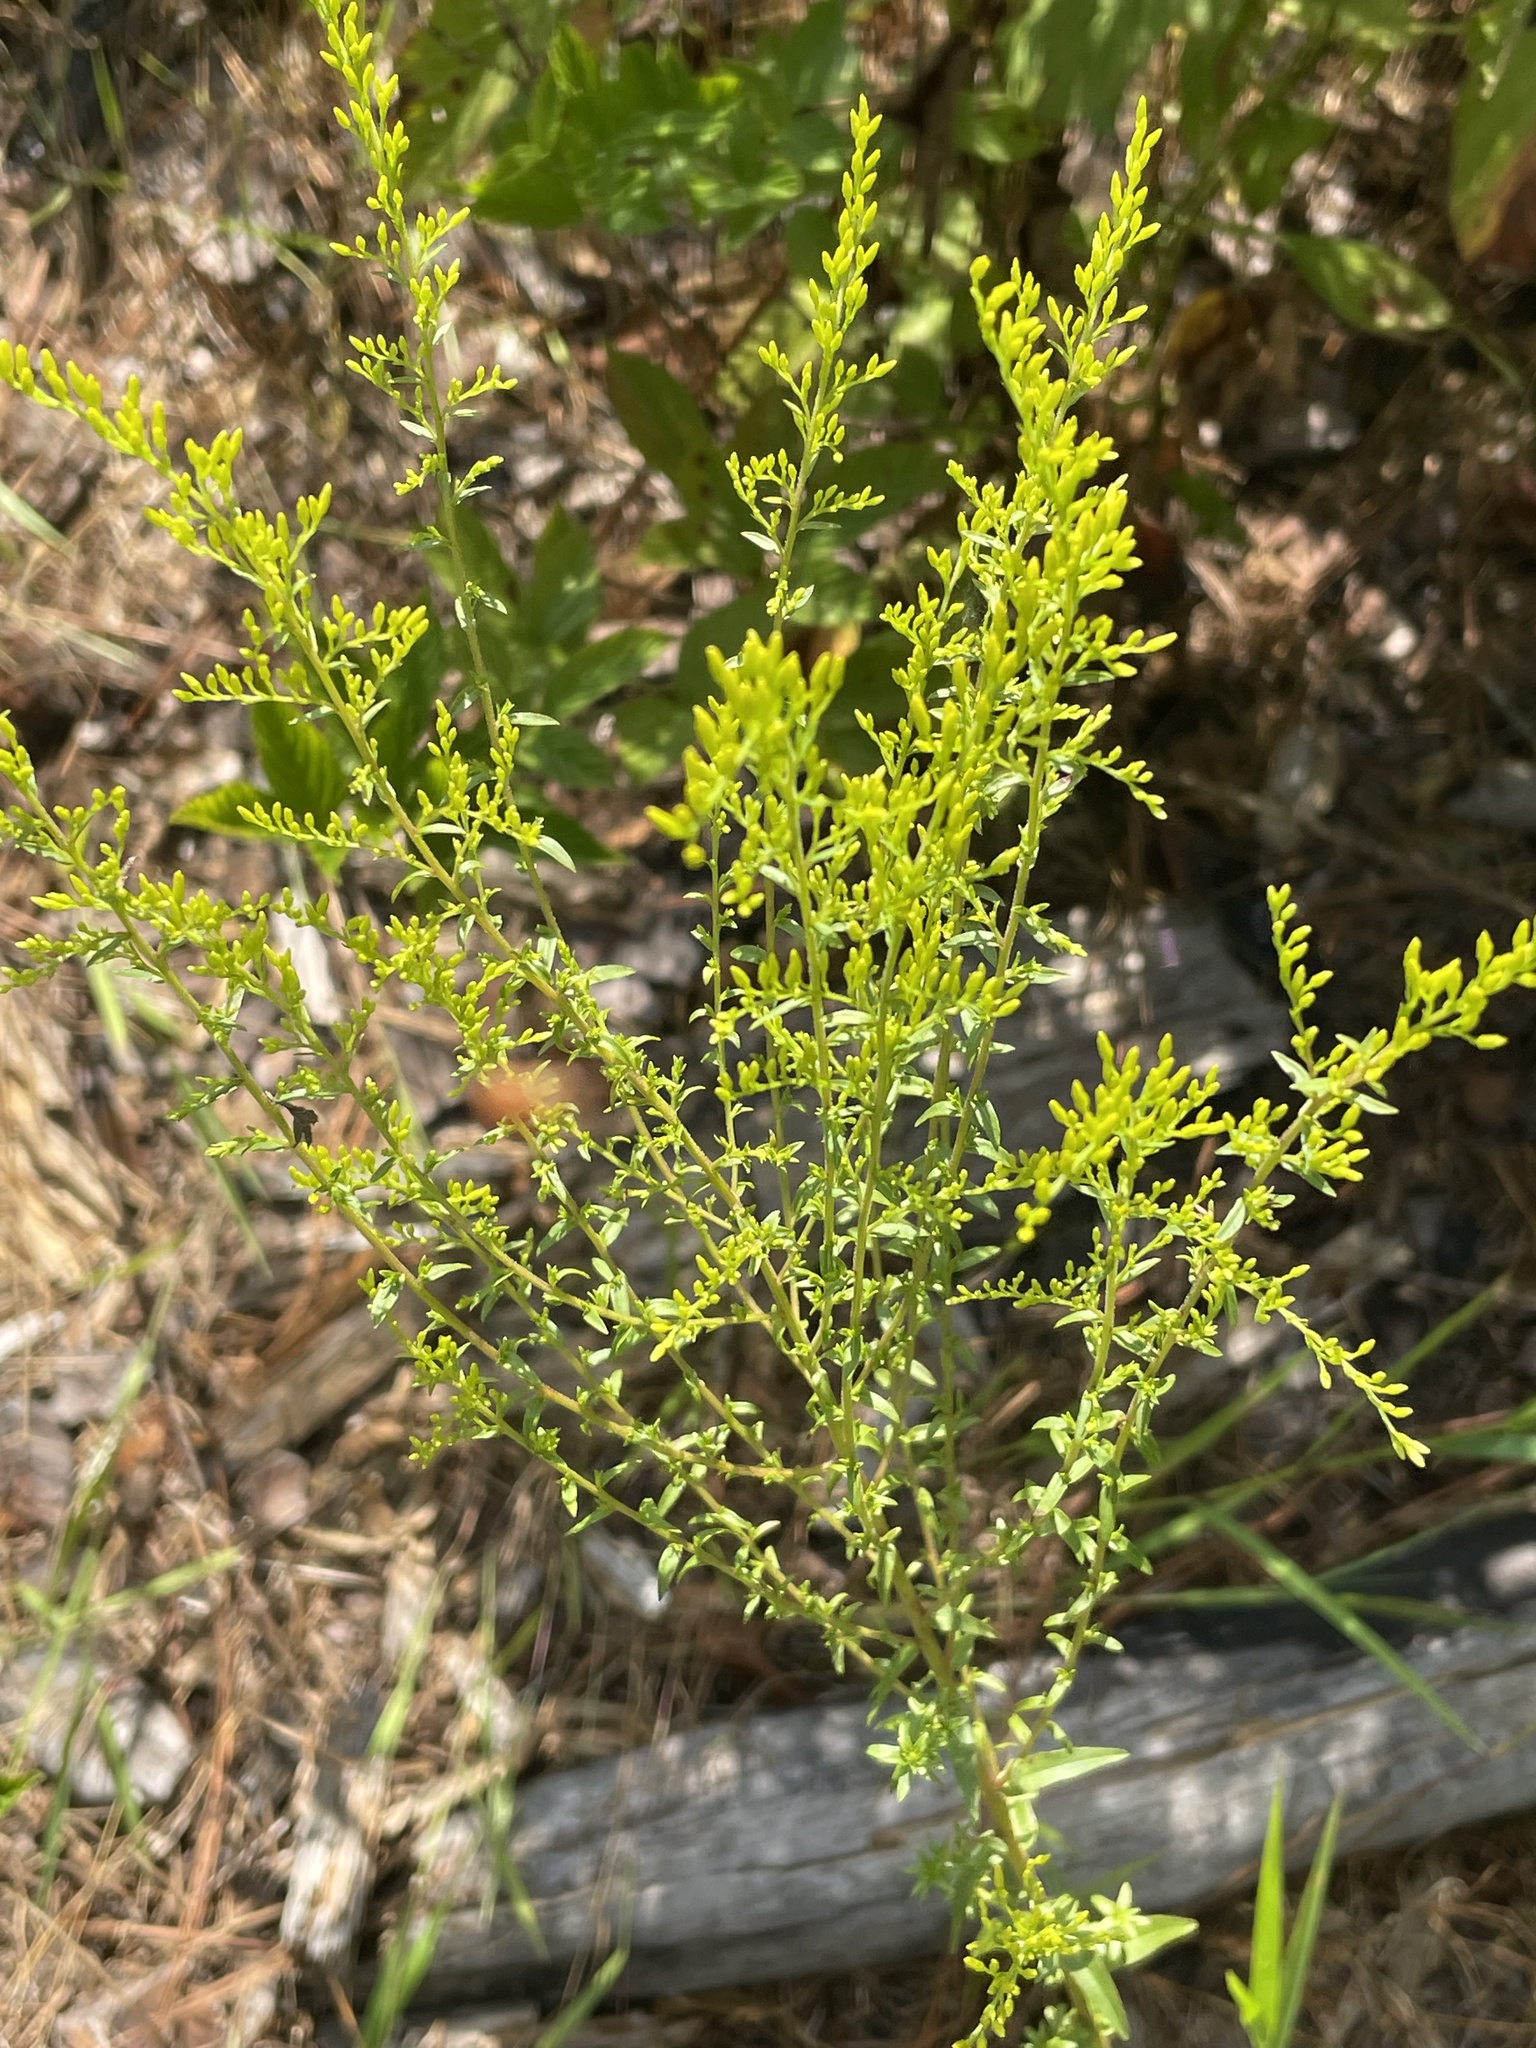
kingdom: Plantae
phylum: Tracheophyta
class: Magnoliopsida
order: Asterales
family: Asteraceae
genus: Solidago
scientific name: Solidago odora
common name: Anise-scented goldenrod
